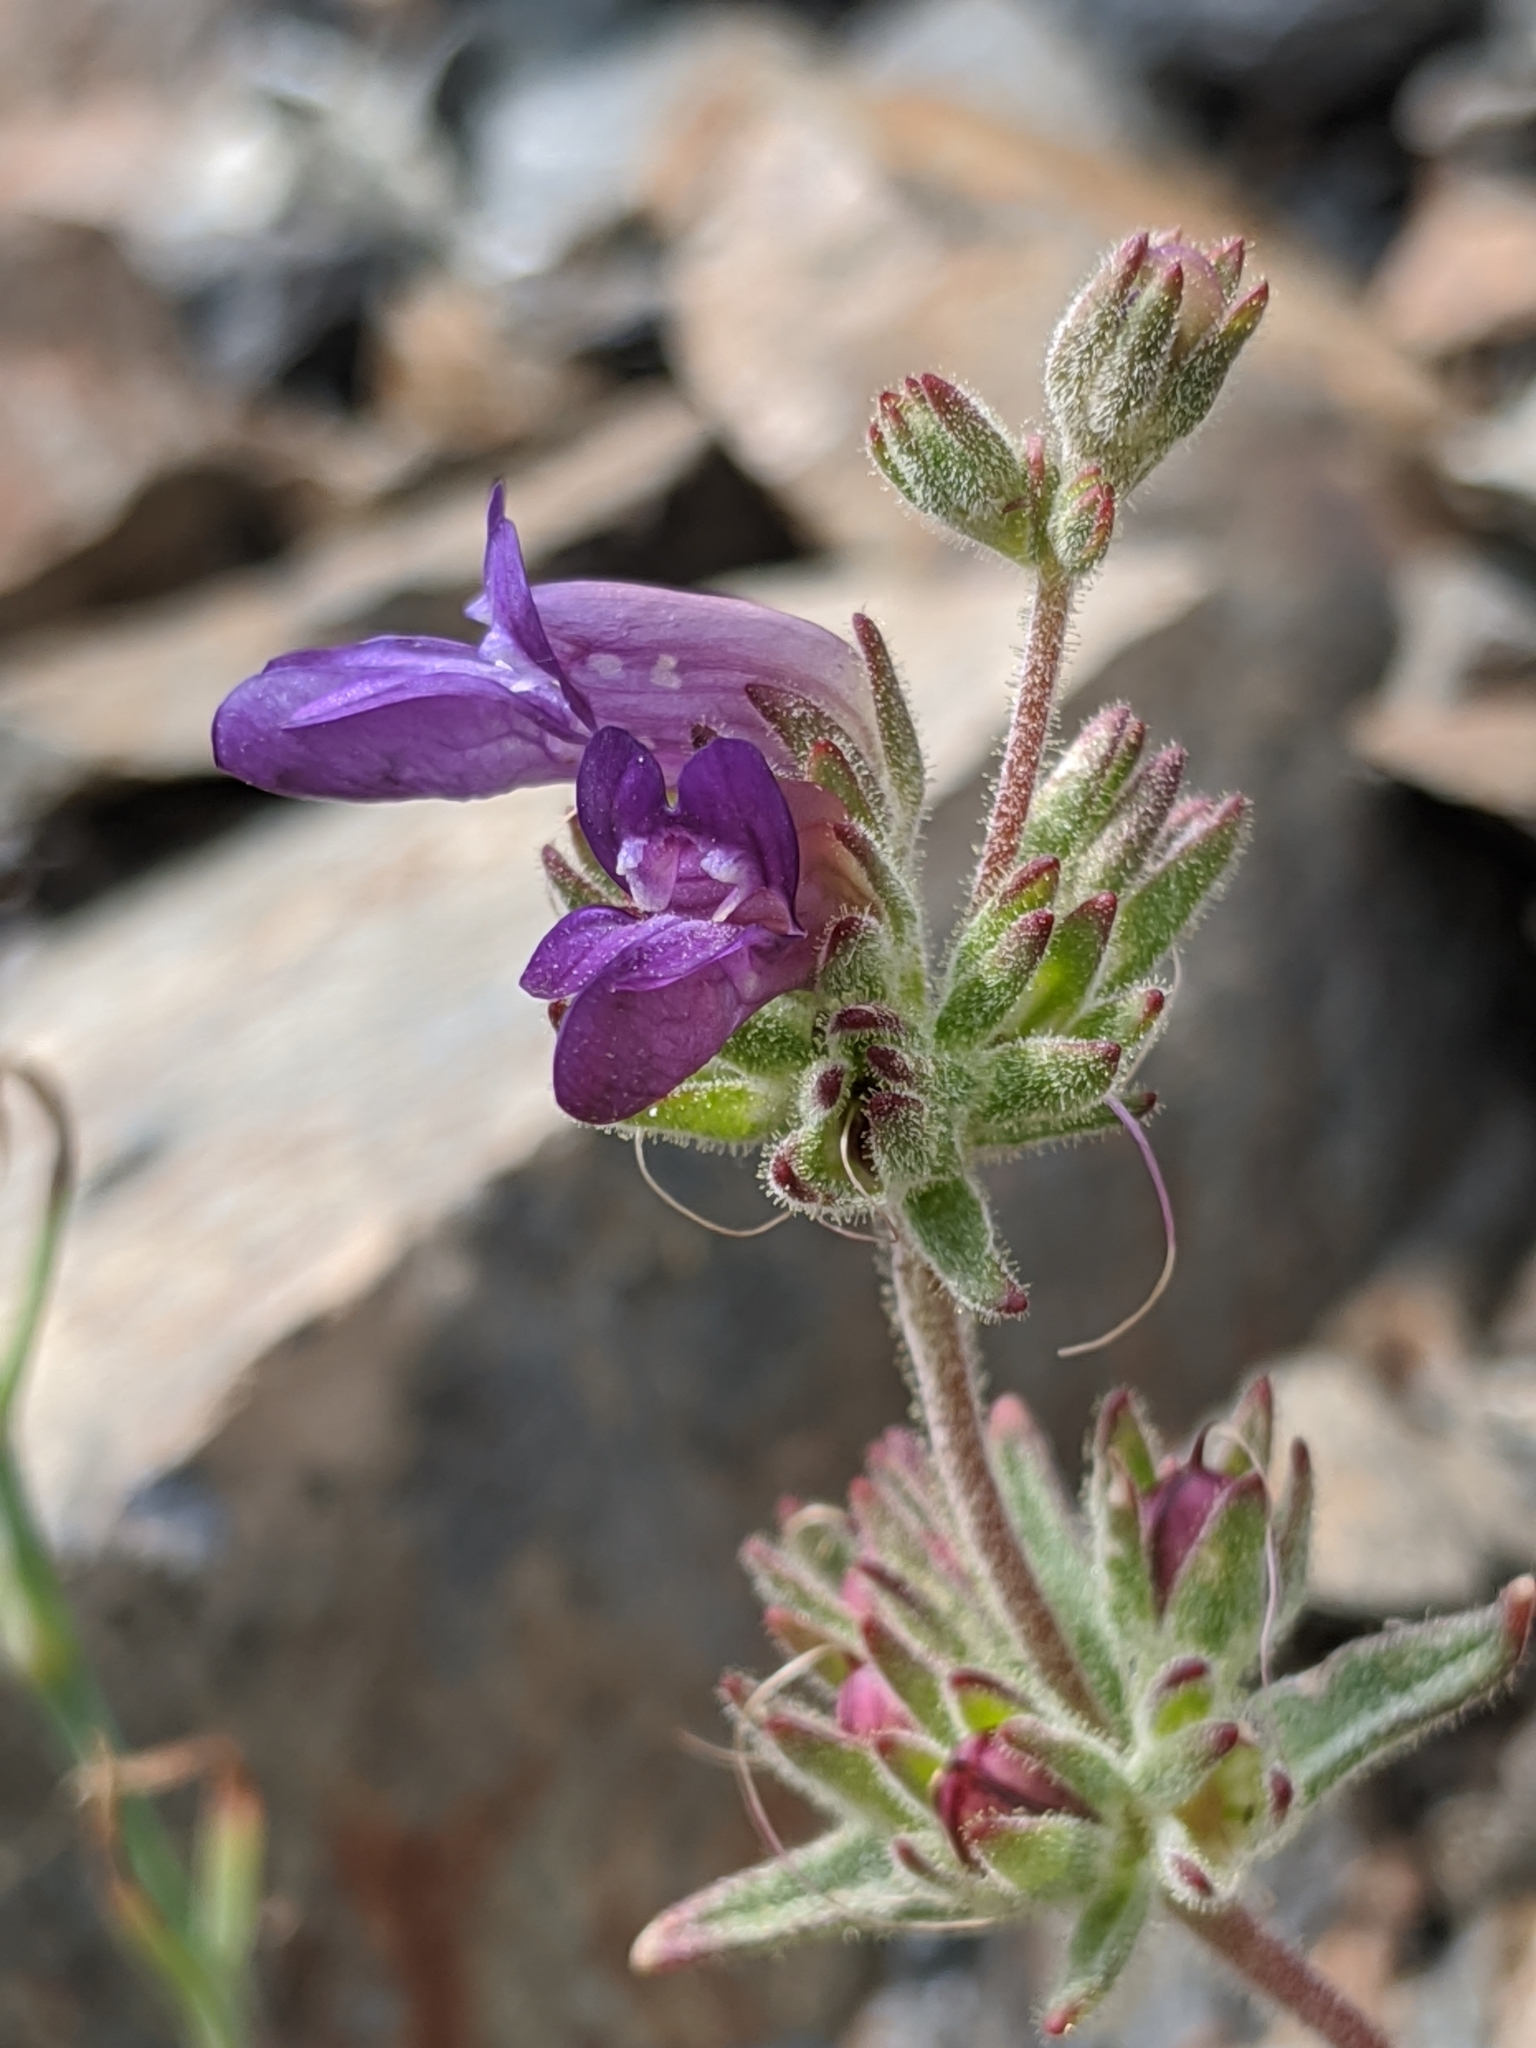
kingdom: Plantae
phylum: Tracheophyta
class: Magnoliopsida
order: Lamiales
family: Plantaginaceae
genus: Collinsia
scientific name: Collinsia greenei
